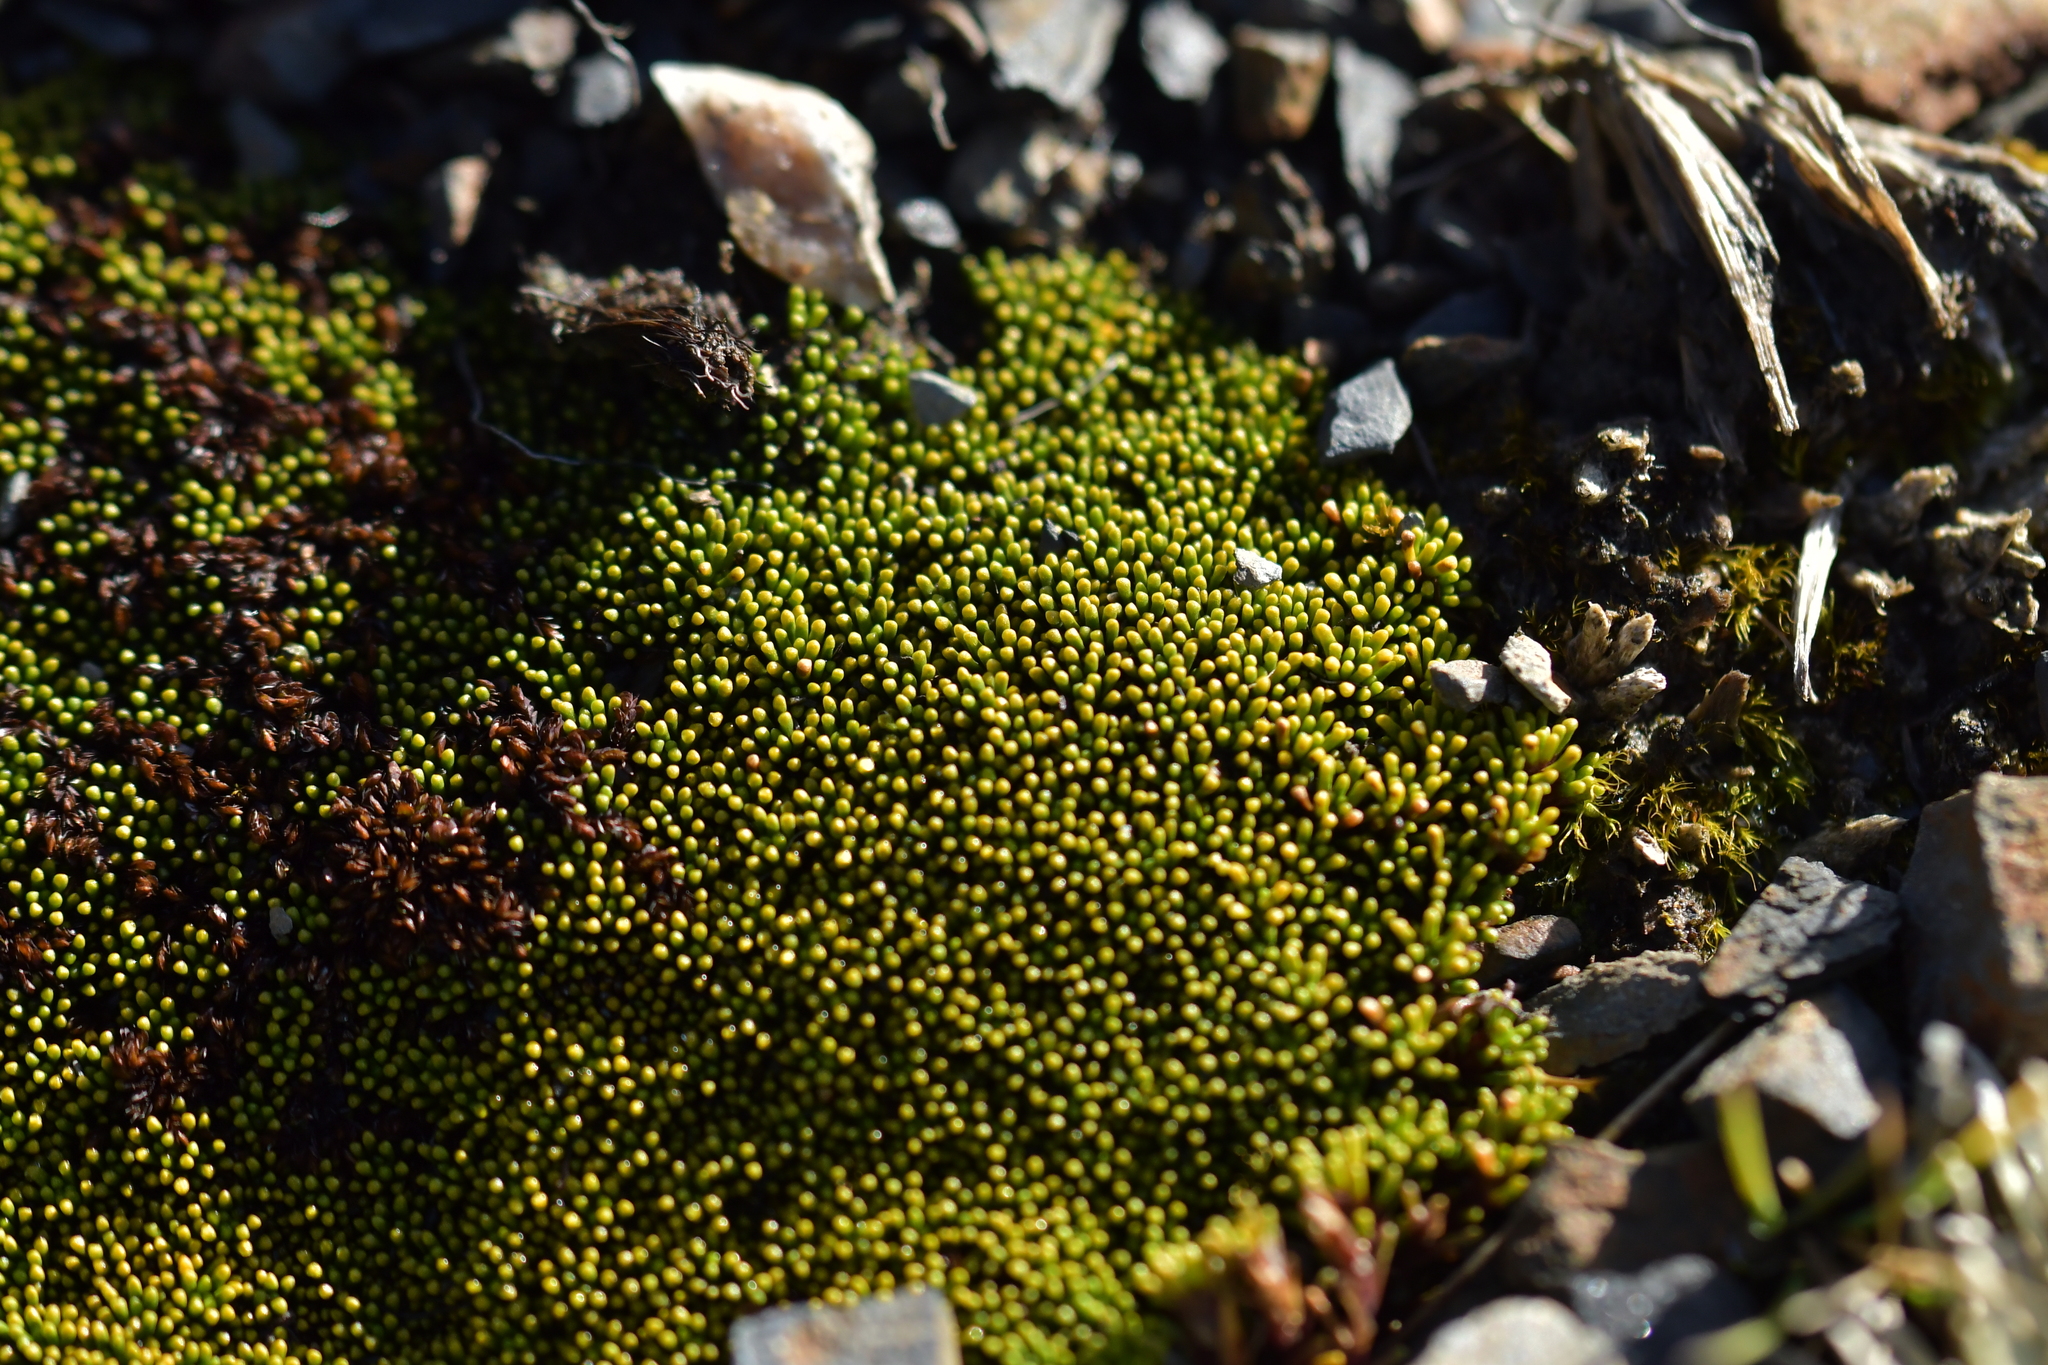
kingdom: Plantae
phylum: Tracheophyta
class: Magnoliopsida
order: Asterales
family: Stylidiaceae
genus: Phyllachne
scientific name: Phyllachne colensoi
